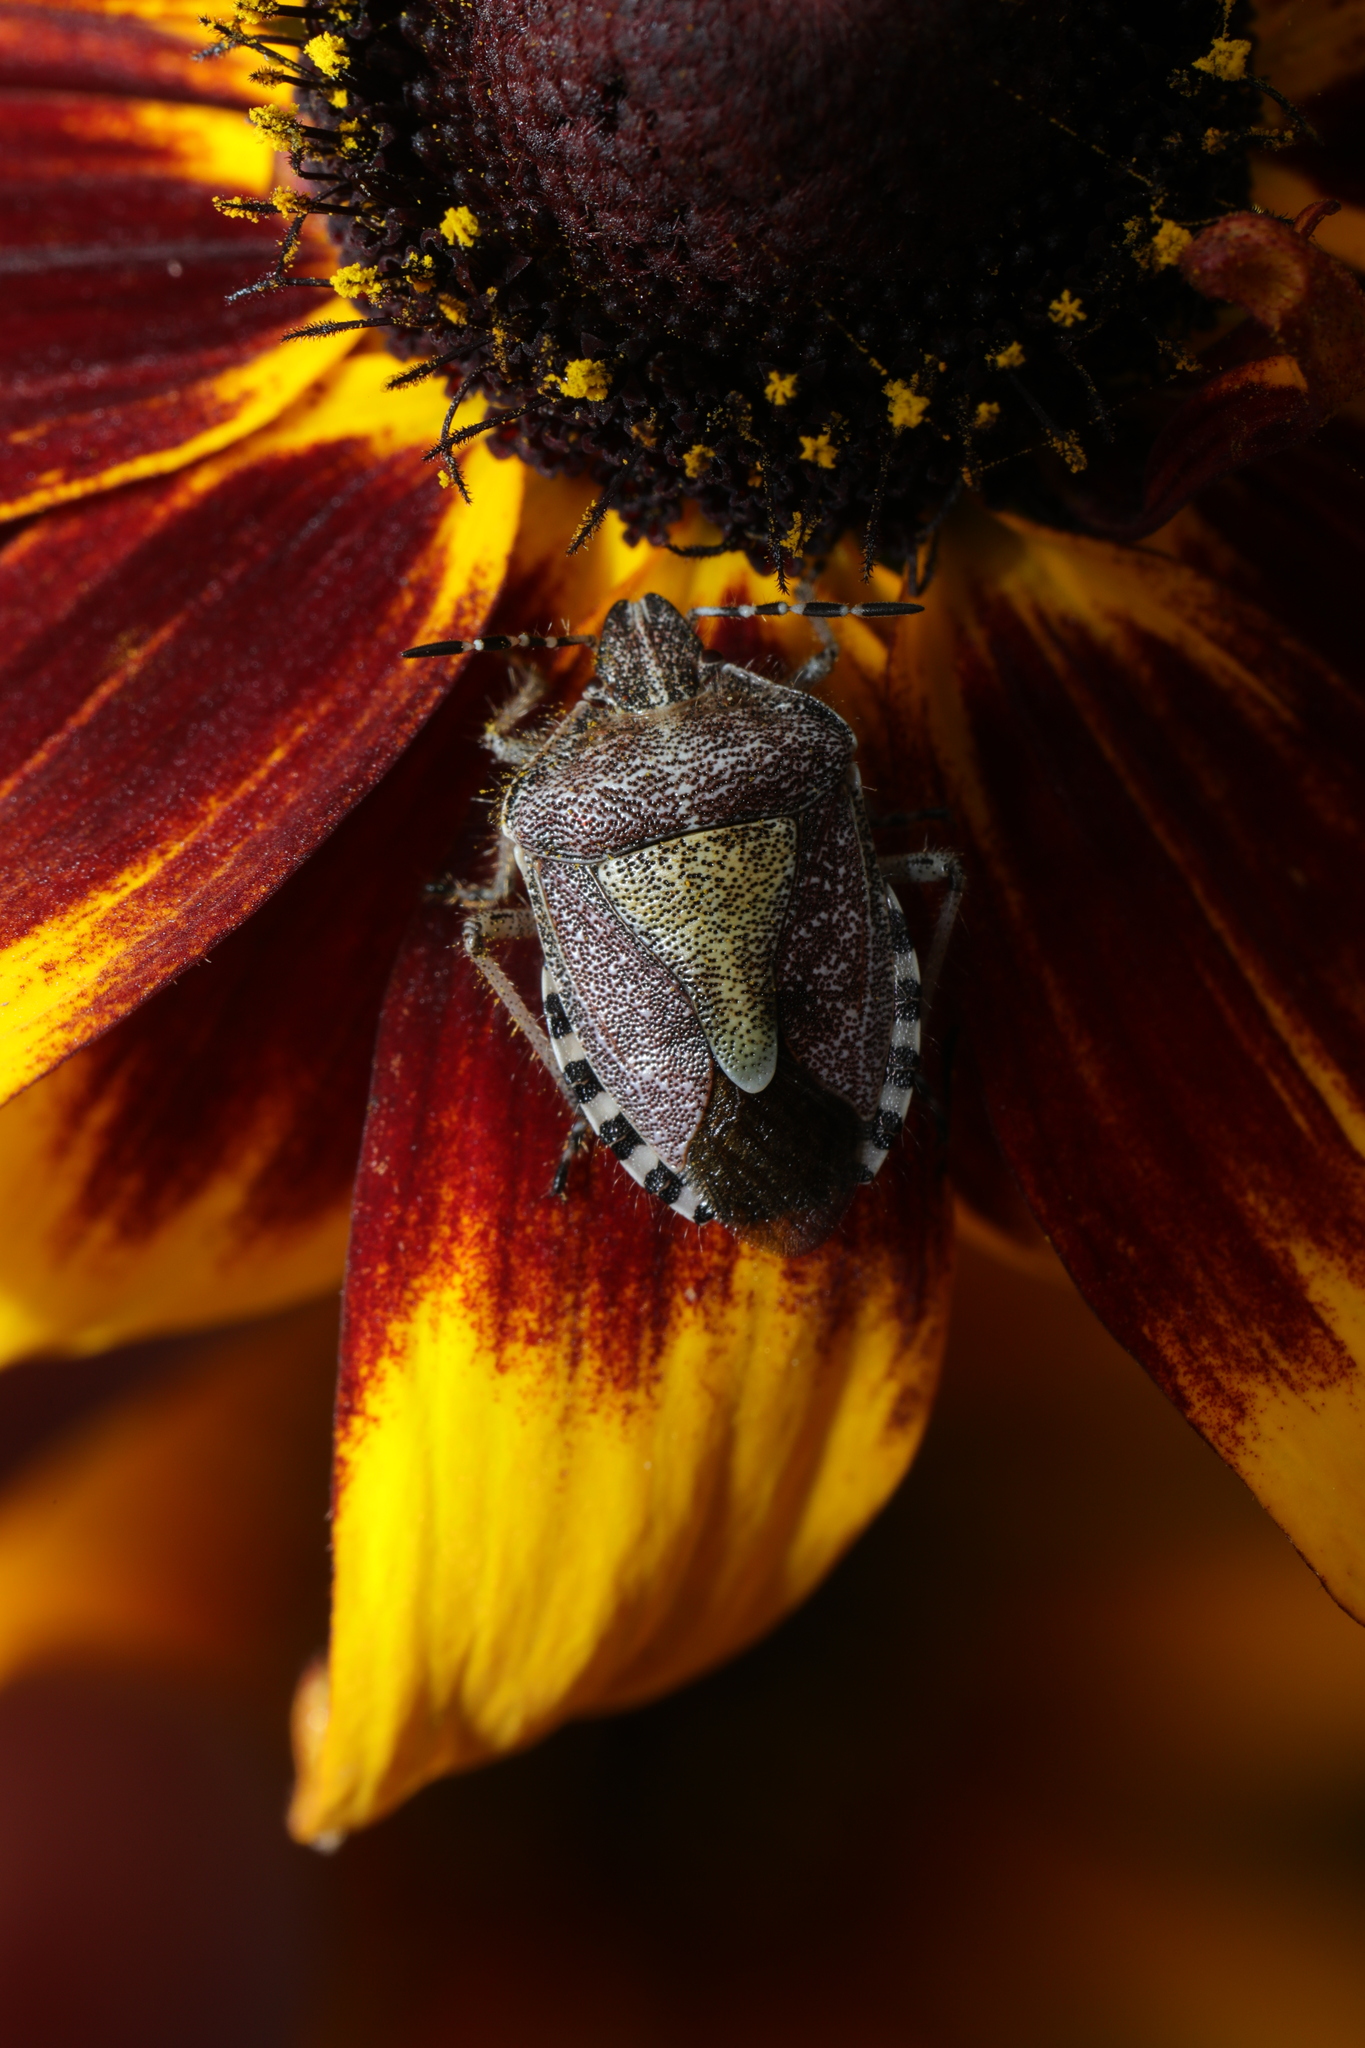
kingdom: Animalia
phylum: Arthropoda
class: Insecta
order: Hemiptera
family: Pentatomidae
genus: Dolycoris
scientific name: Dolycoris baccarum
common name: Sloe bug
